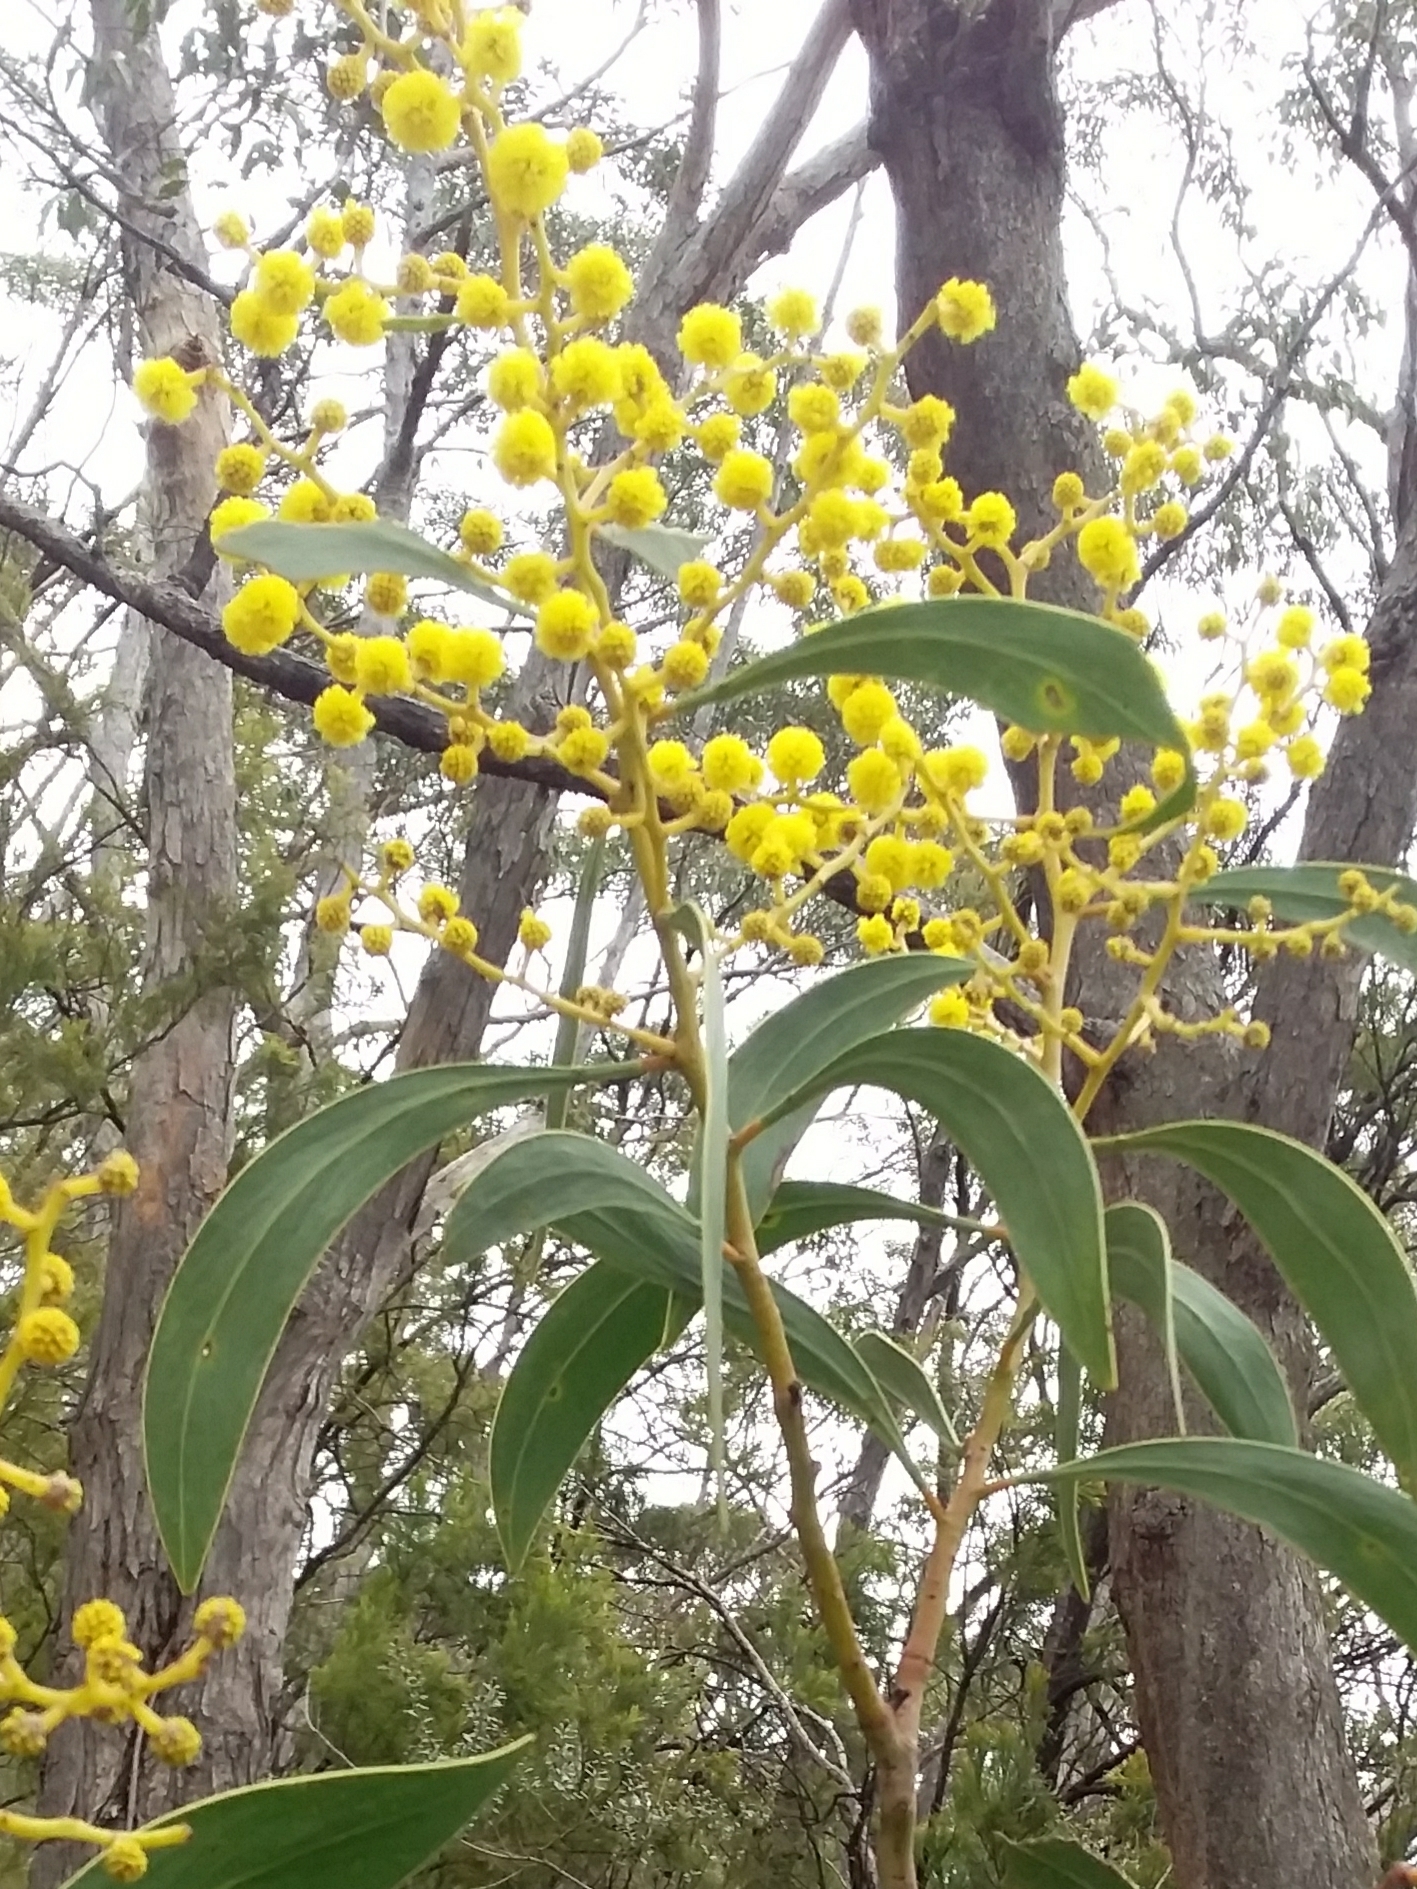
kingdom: Plantae
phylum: Tracheophyta
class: Magnoliopsida
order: Fabales
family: Fabaceae
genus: Acacia
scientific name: Acacia pycnantha
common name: Golden wattle
